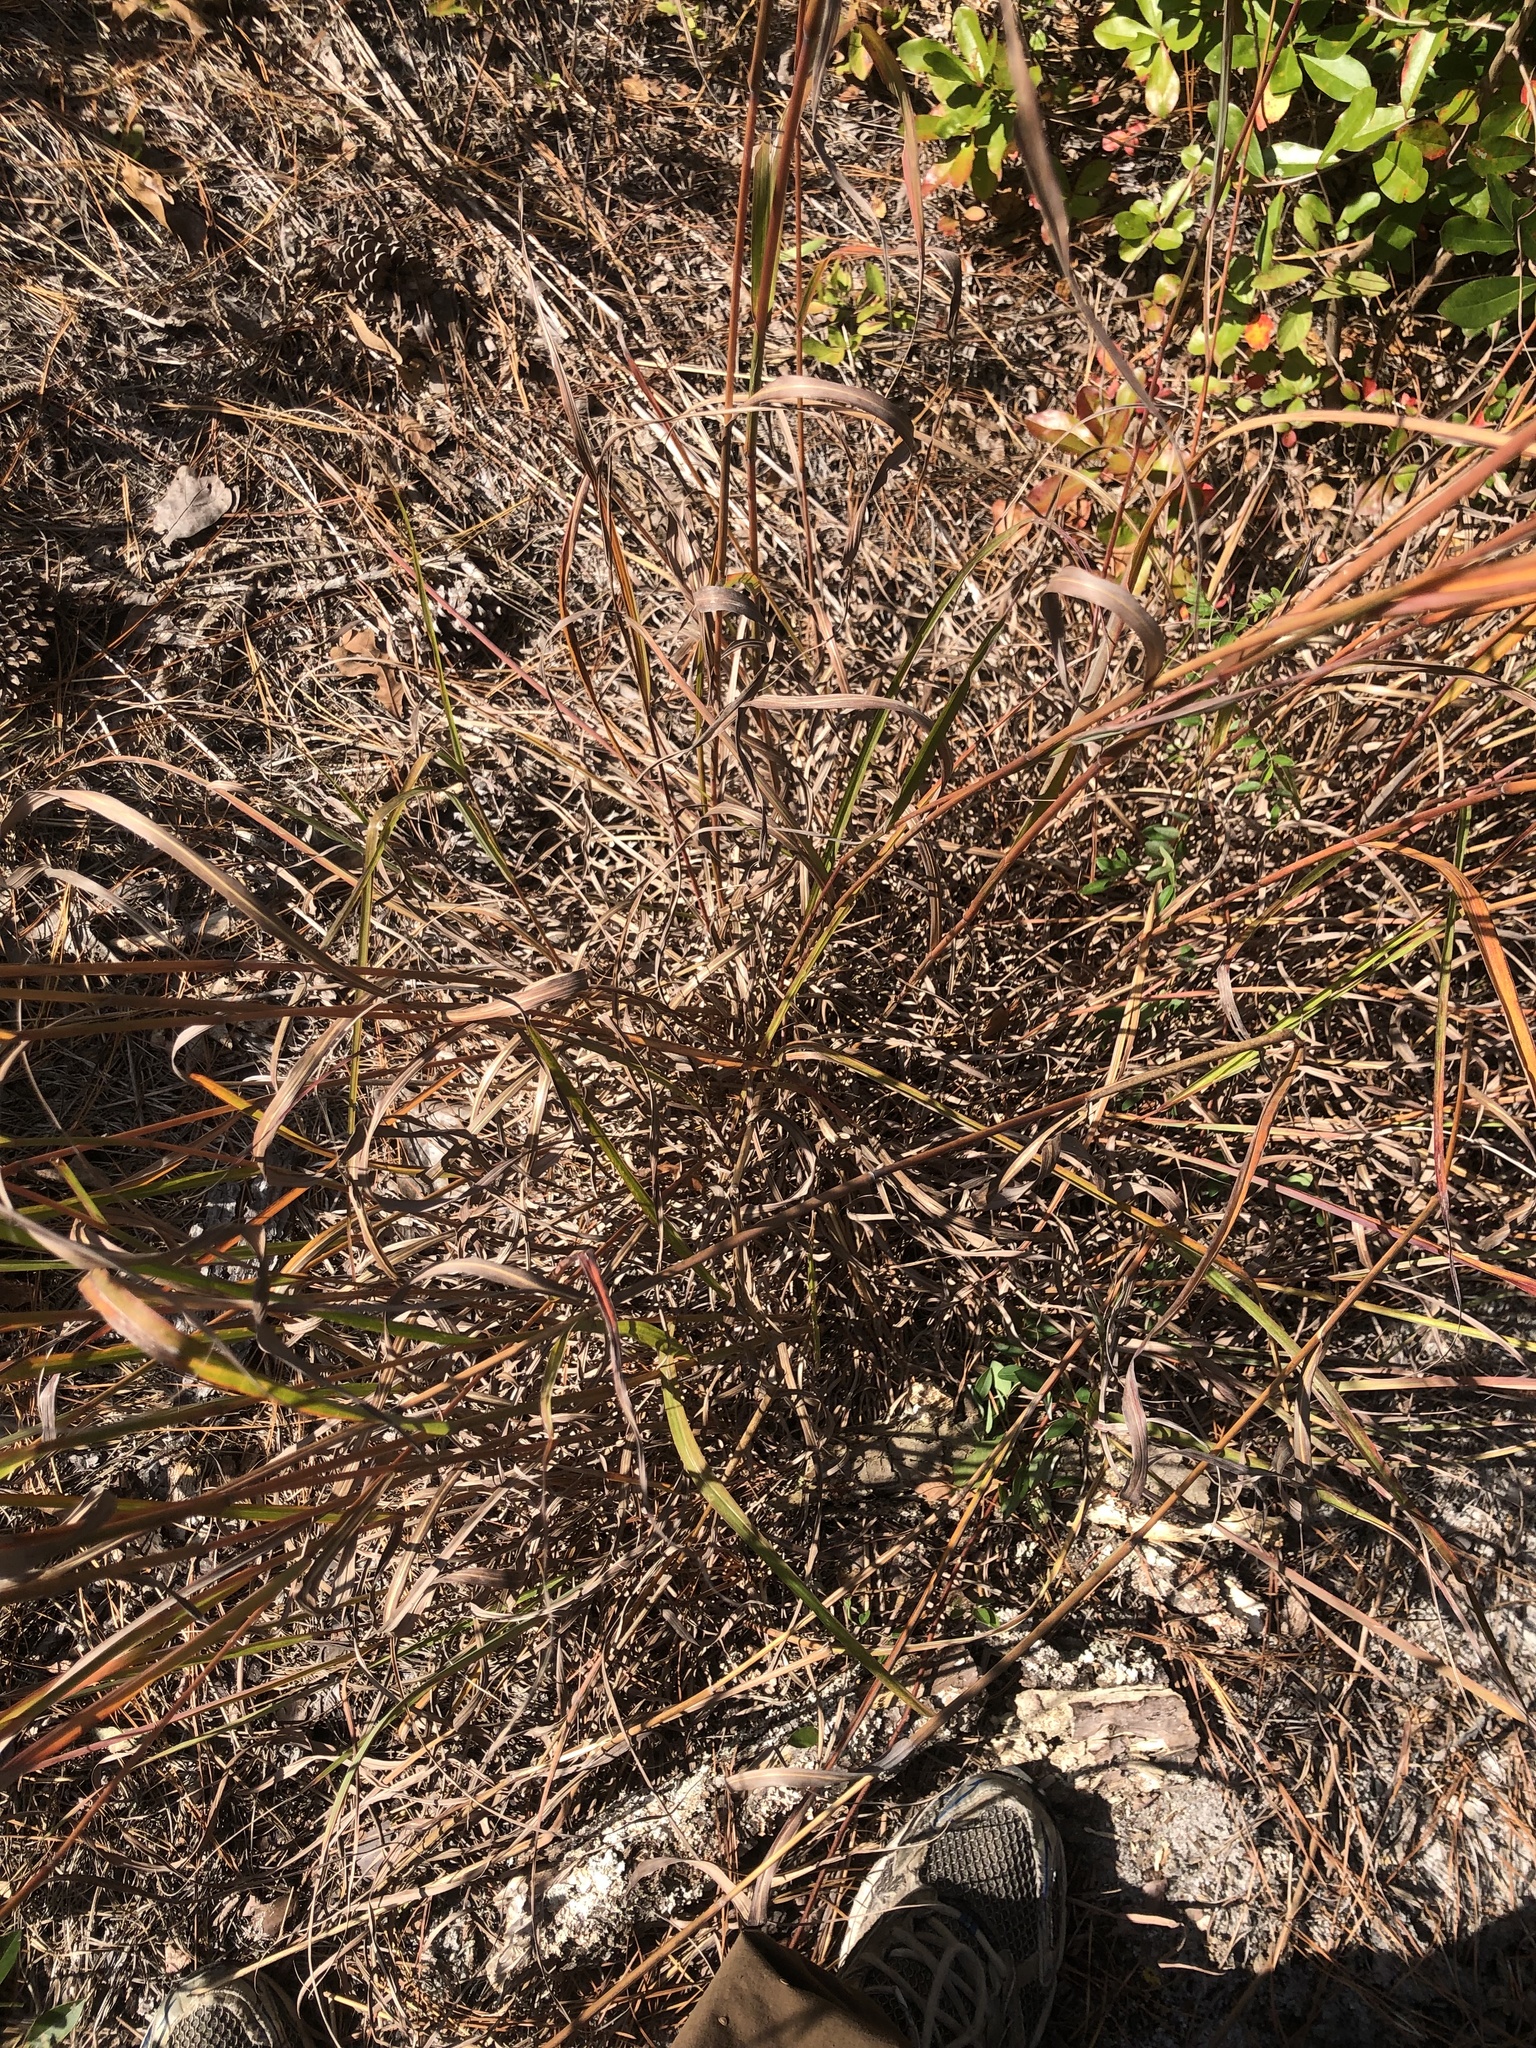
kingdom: Plantae
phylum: Tracheophyta
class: Liliopsida
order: Poales
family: Poaceae
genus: Andropogon
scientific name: Andropogon gerardi
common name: Big bluestem
